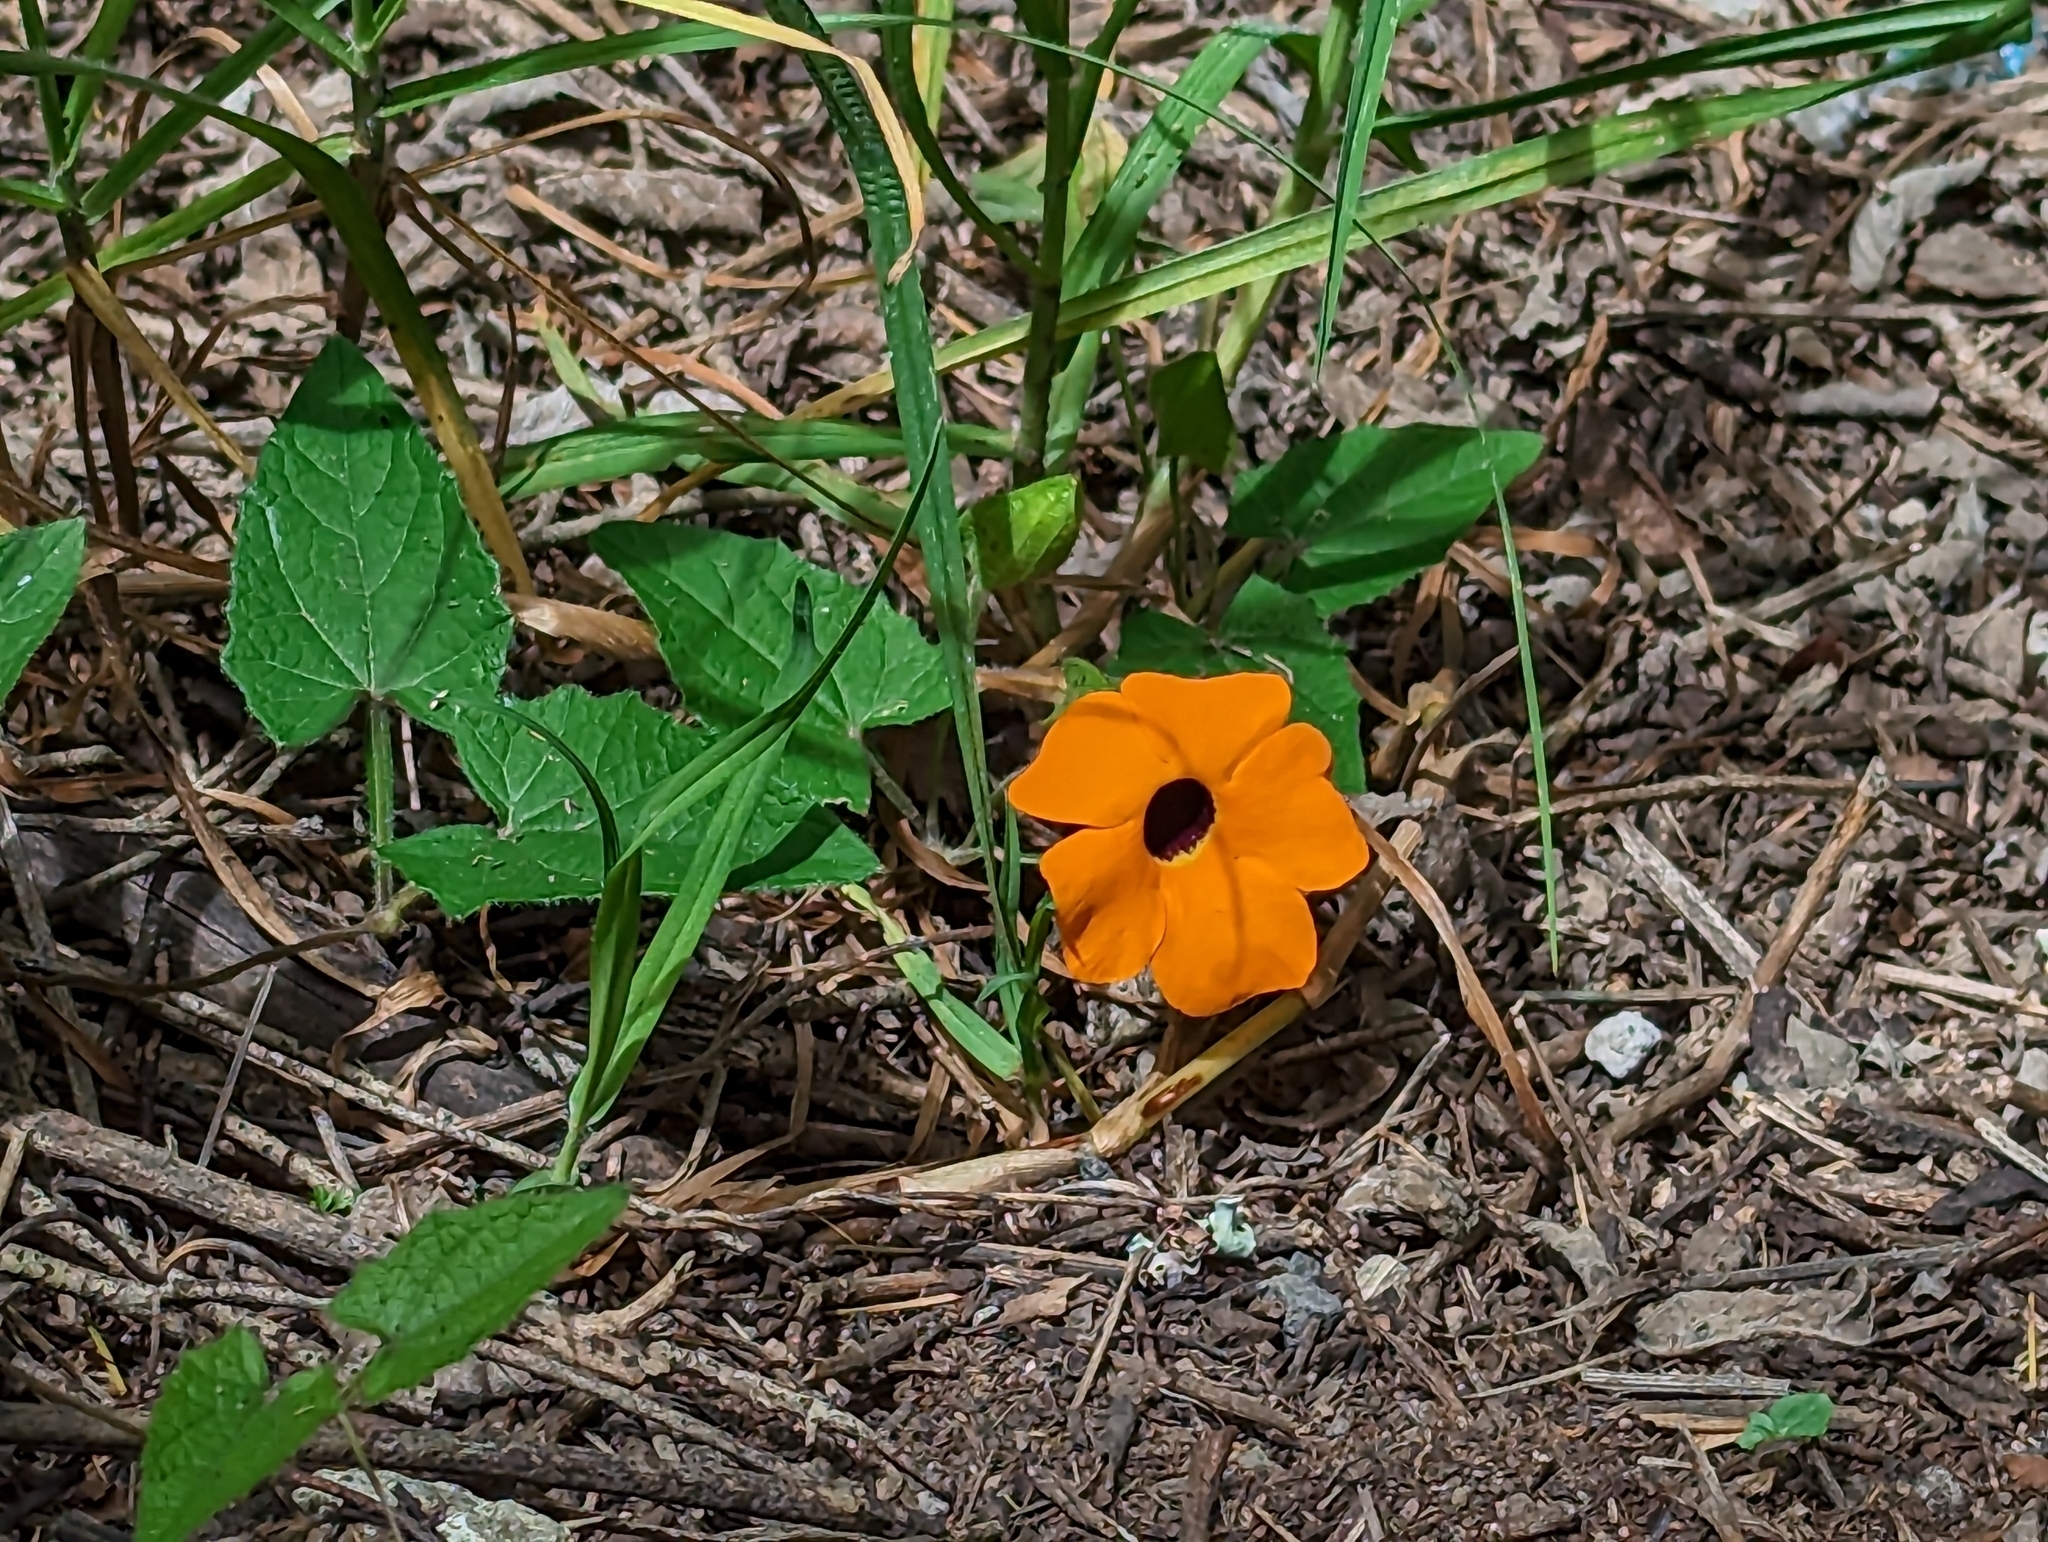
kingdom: Plantae
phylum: Tracheophyta
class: Magnoliopsida
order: Lamiales
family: Acanthaceae
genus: Thunbergia
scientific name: Thunbergia alata
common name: Blackeyed susan vine
